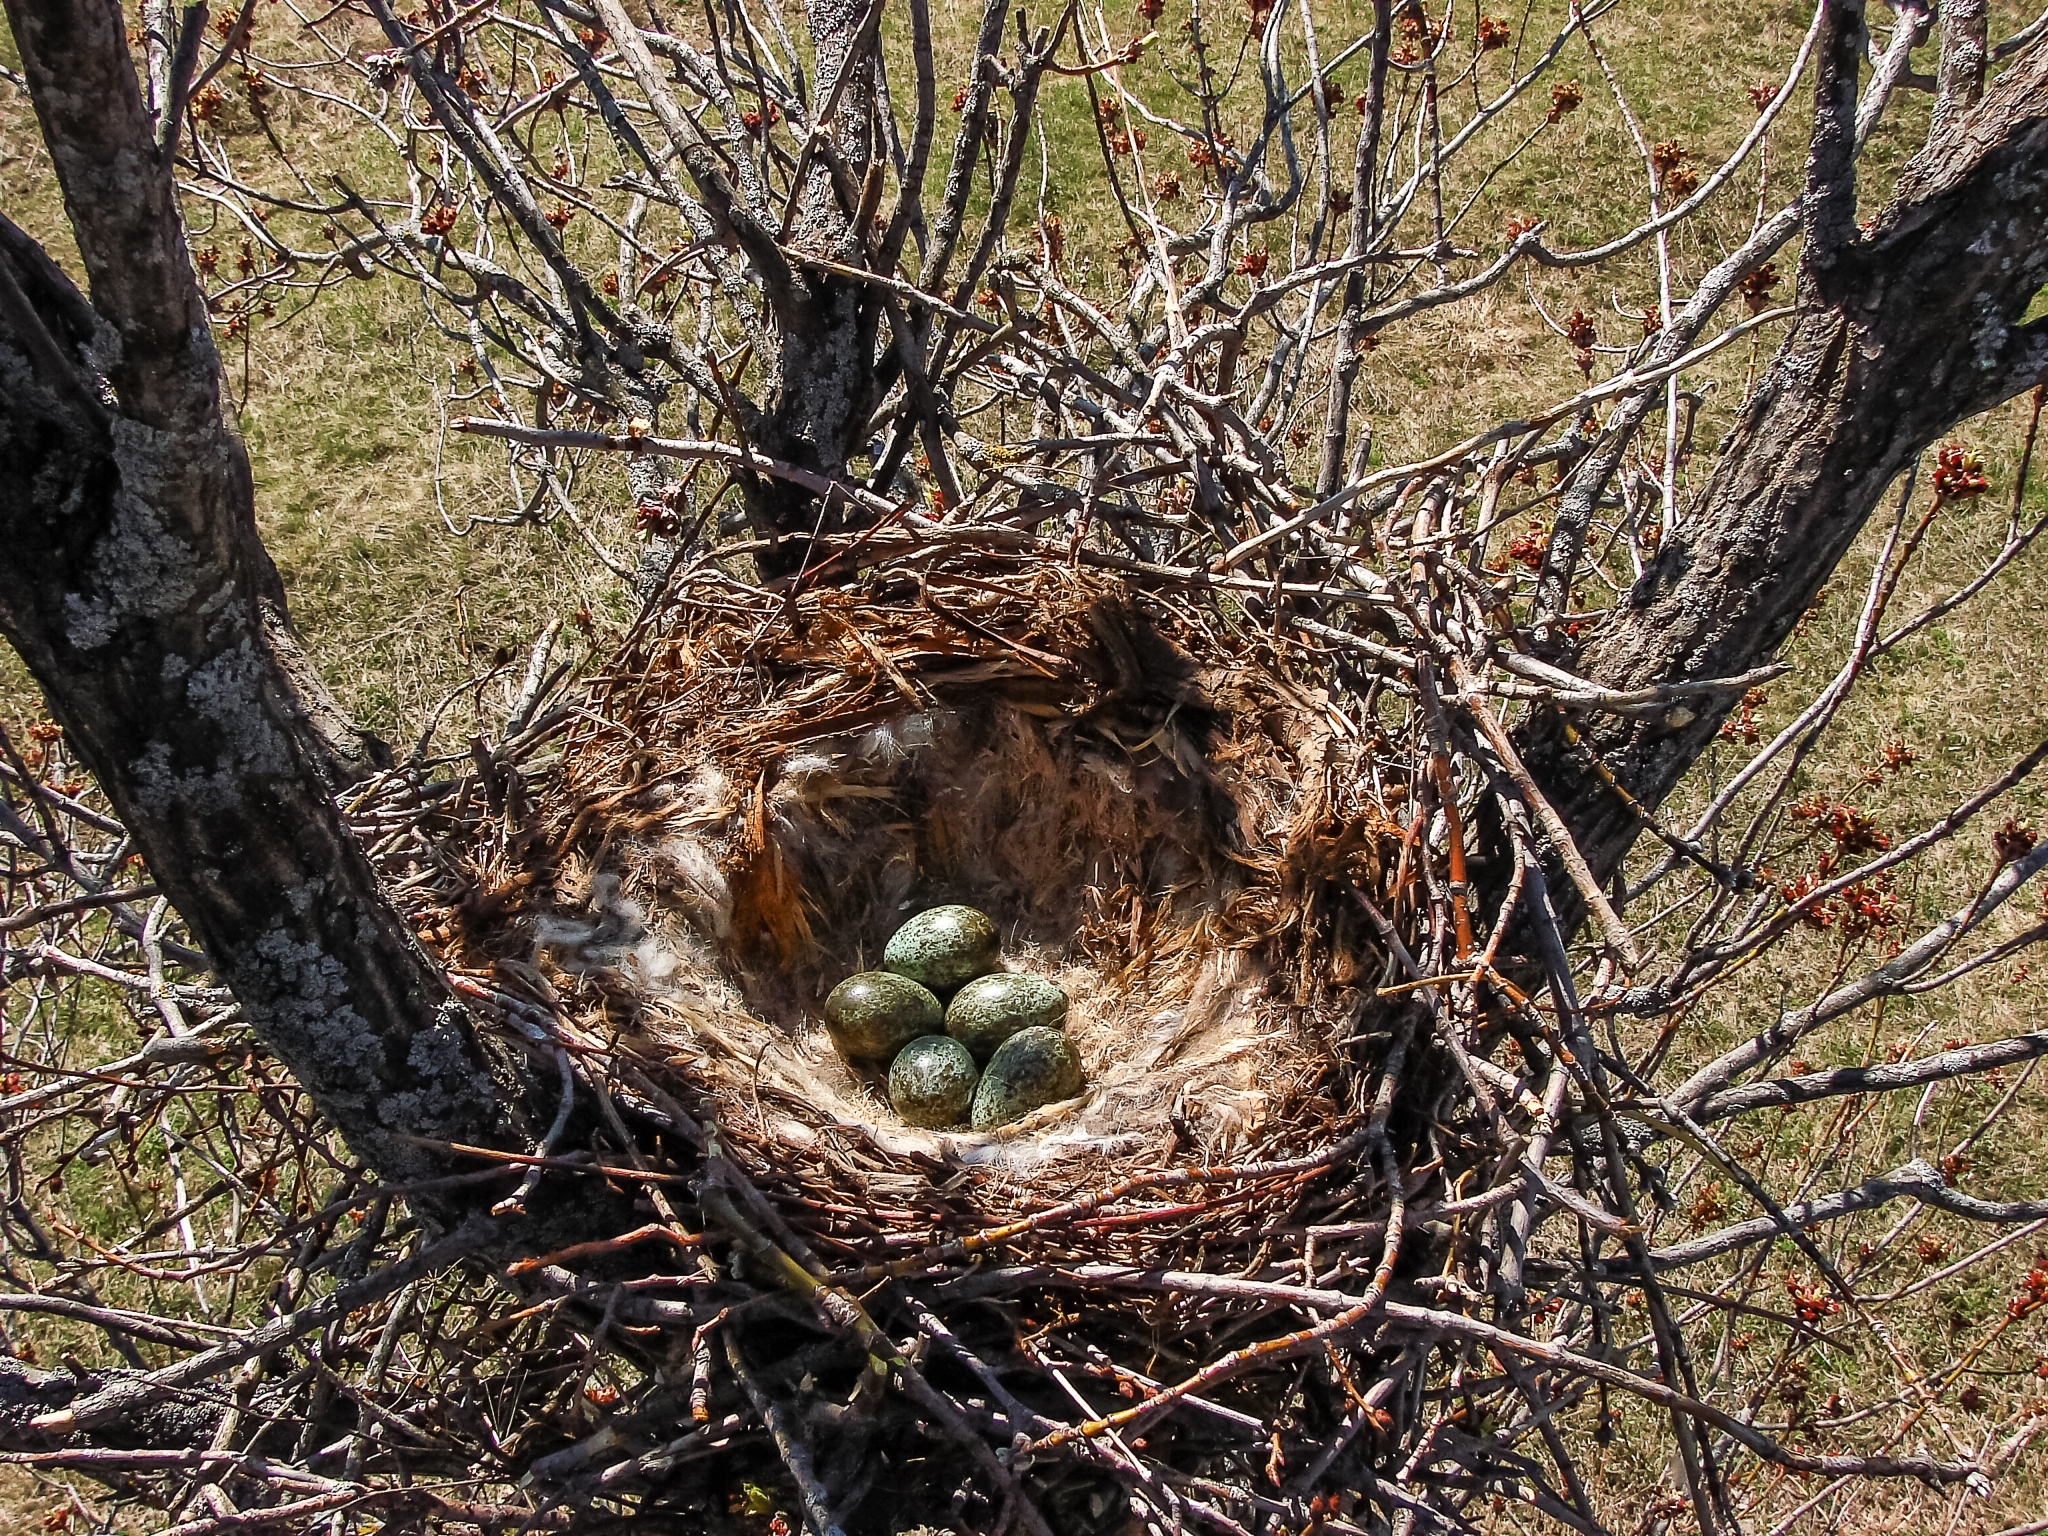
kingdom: Animalia
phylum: Chordata
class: Aves
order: Passeriformes
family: Corvidae
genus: Corvus
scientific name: Corvus cornix
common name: Hooded crow
